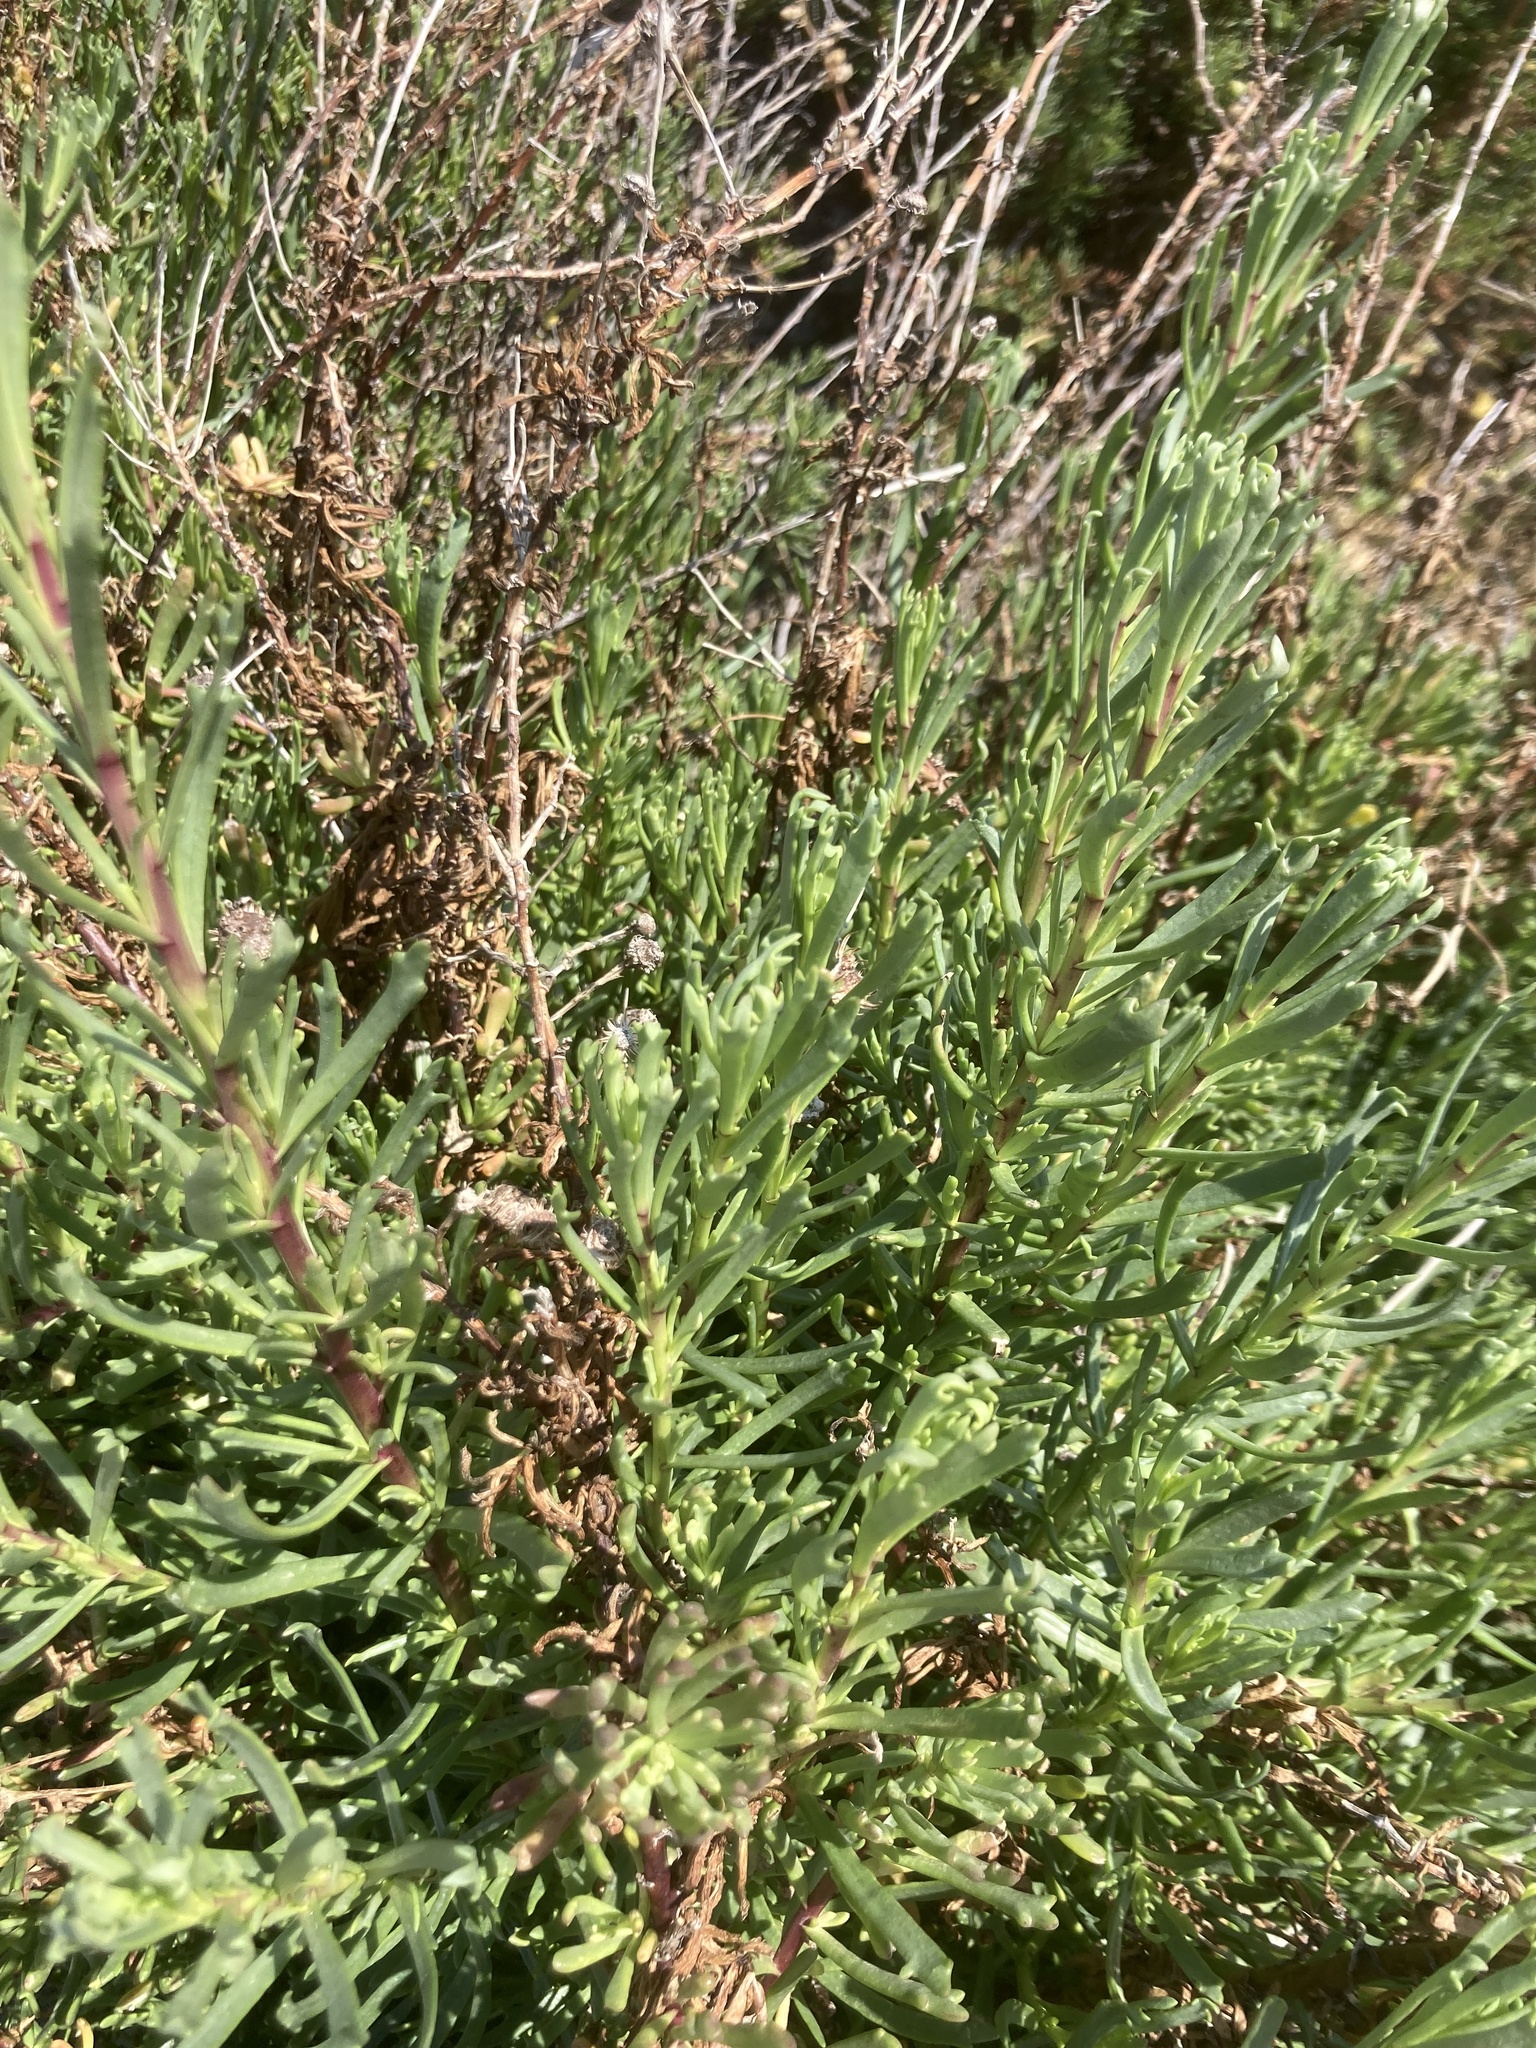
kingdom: Plantae
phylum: Tracheophyta
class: Magnoliopsida
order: Asterales
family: Asteraceae
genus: Limbarda
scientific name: Limbarda crithmoides
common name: Golden samphire
